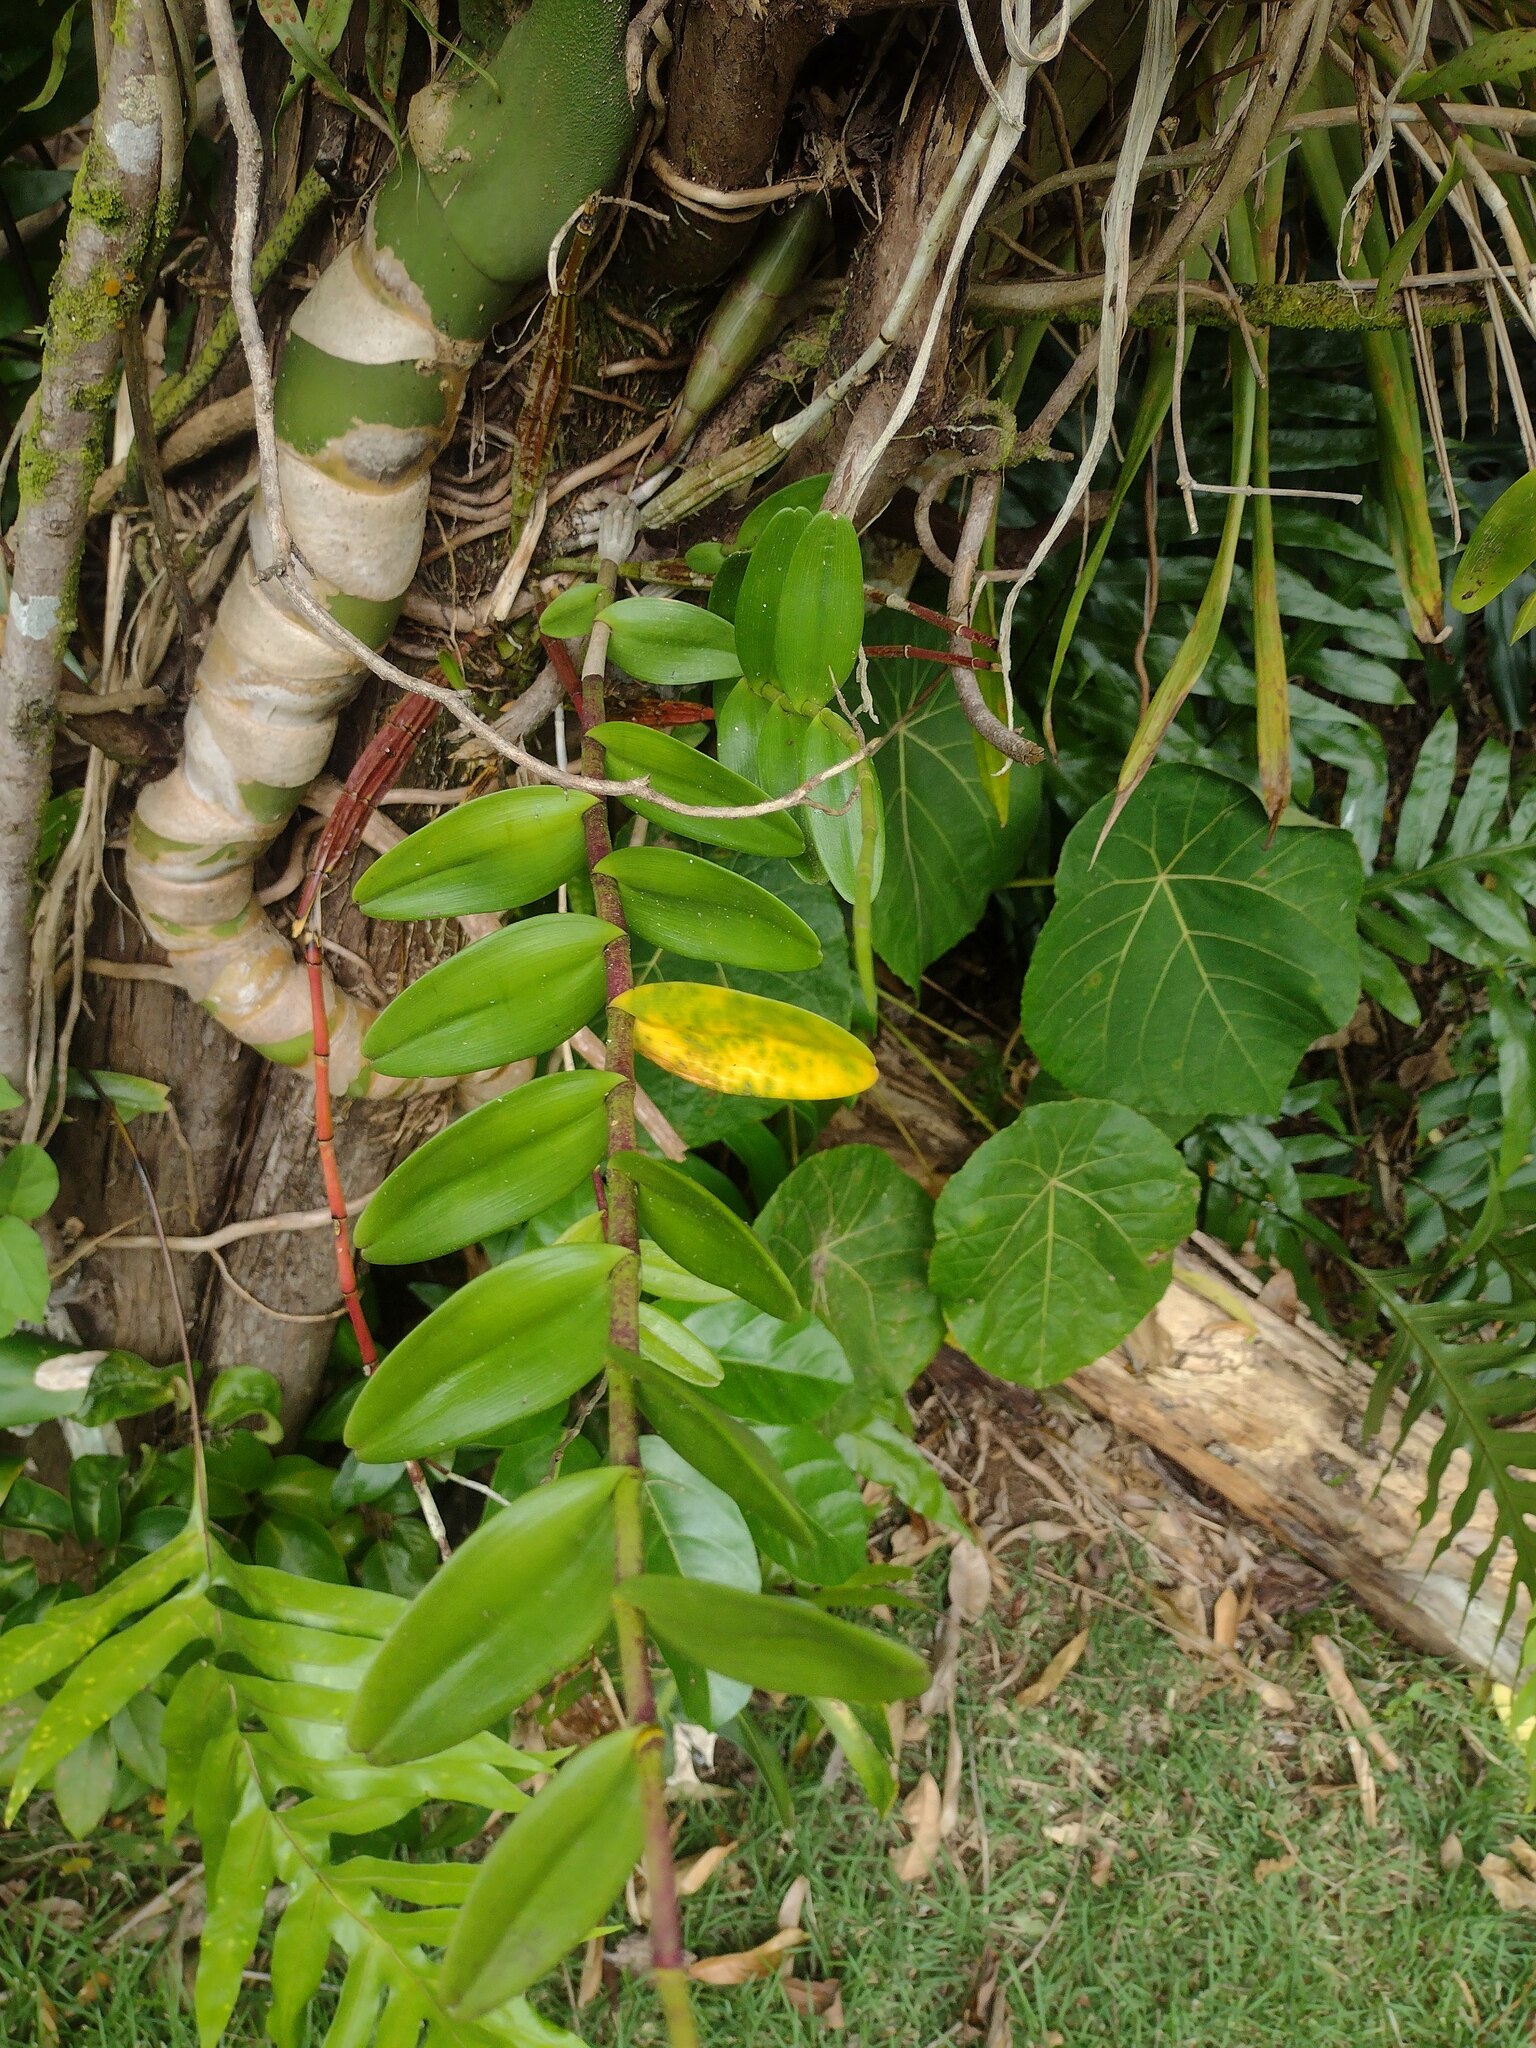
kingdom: Plantae
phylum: Tracheophyta
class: Liliopsida
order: Asparagales
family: Orchidaceae
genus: Dendrobium
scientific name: Dendrobium crumenatum
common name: Orchid
